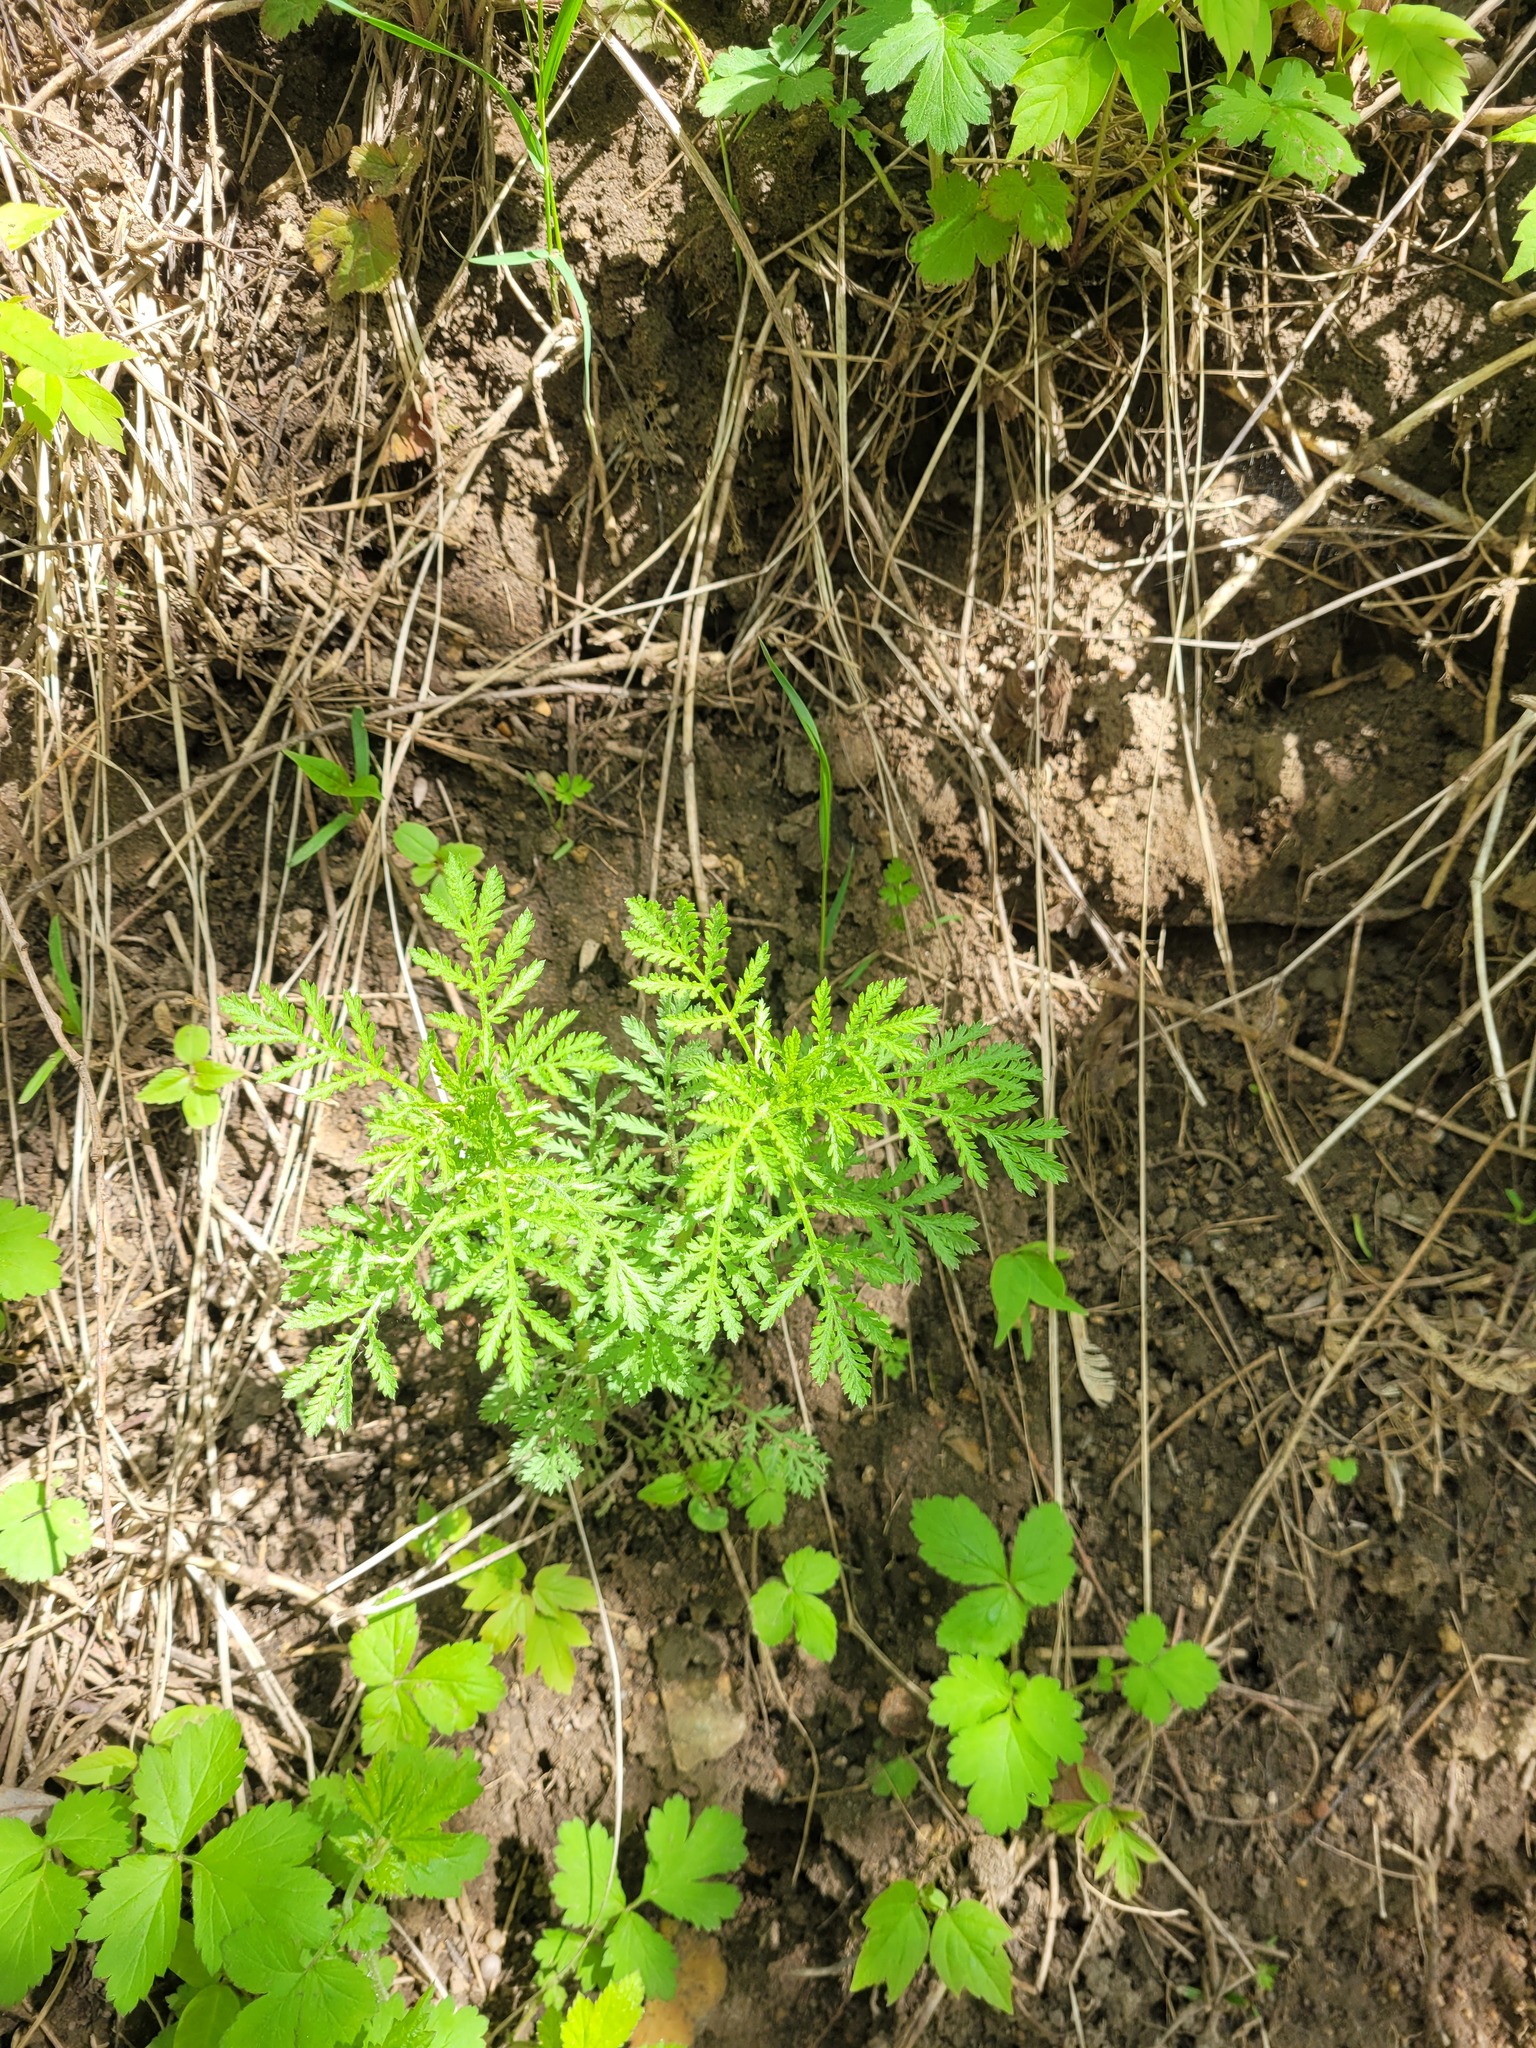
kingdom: Plantae
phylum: Tracheophyta
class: Magnoliopsida
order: Asterales
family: Asteraceae
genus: Cota
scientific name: Cota tinctoria
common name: Golden chamomile
